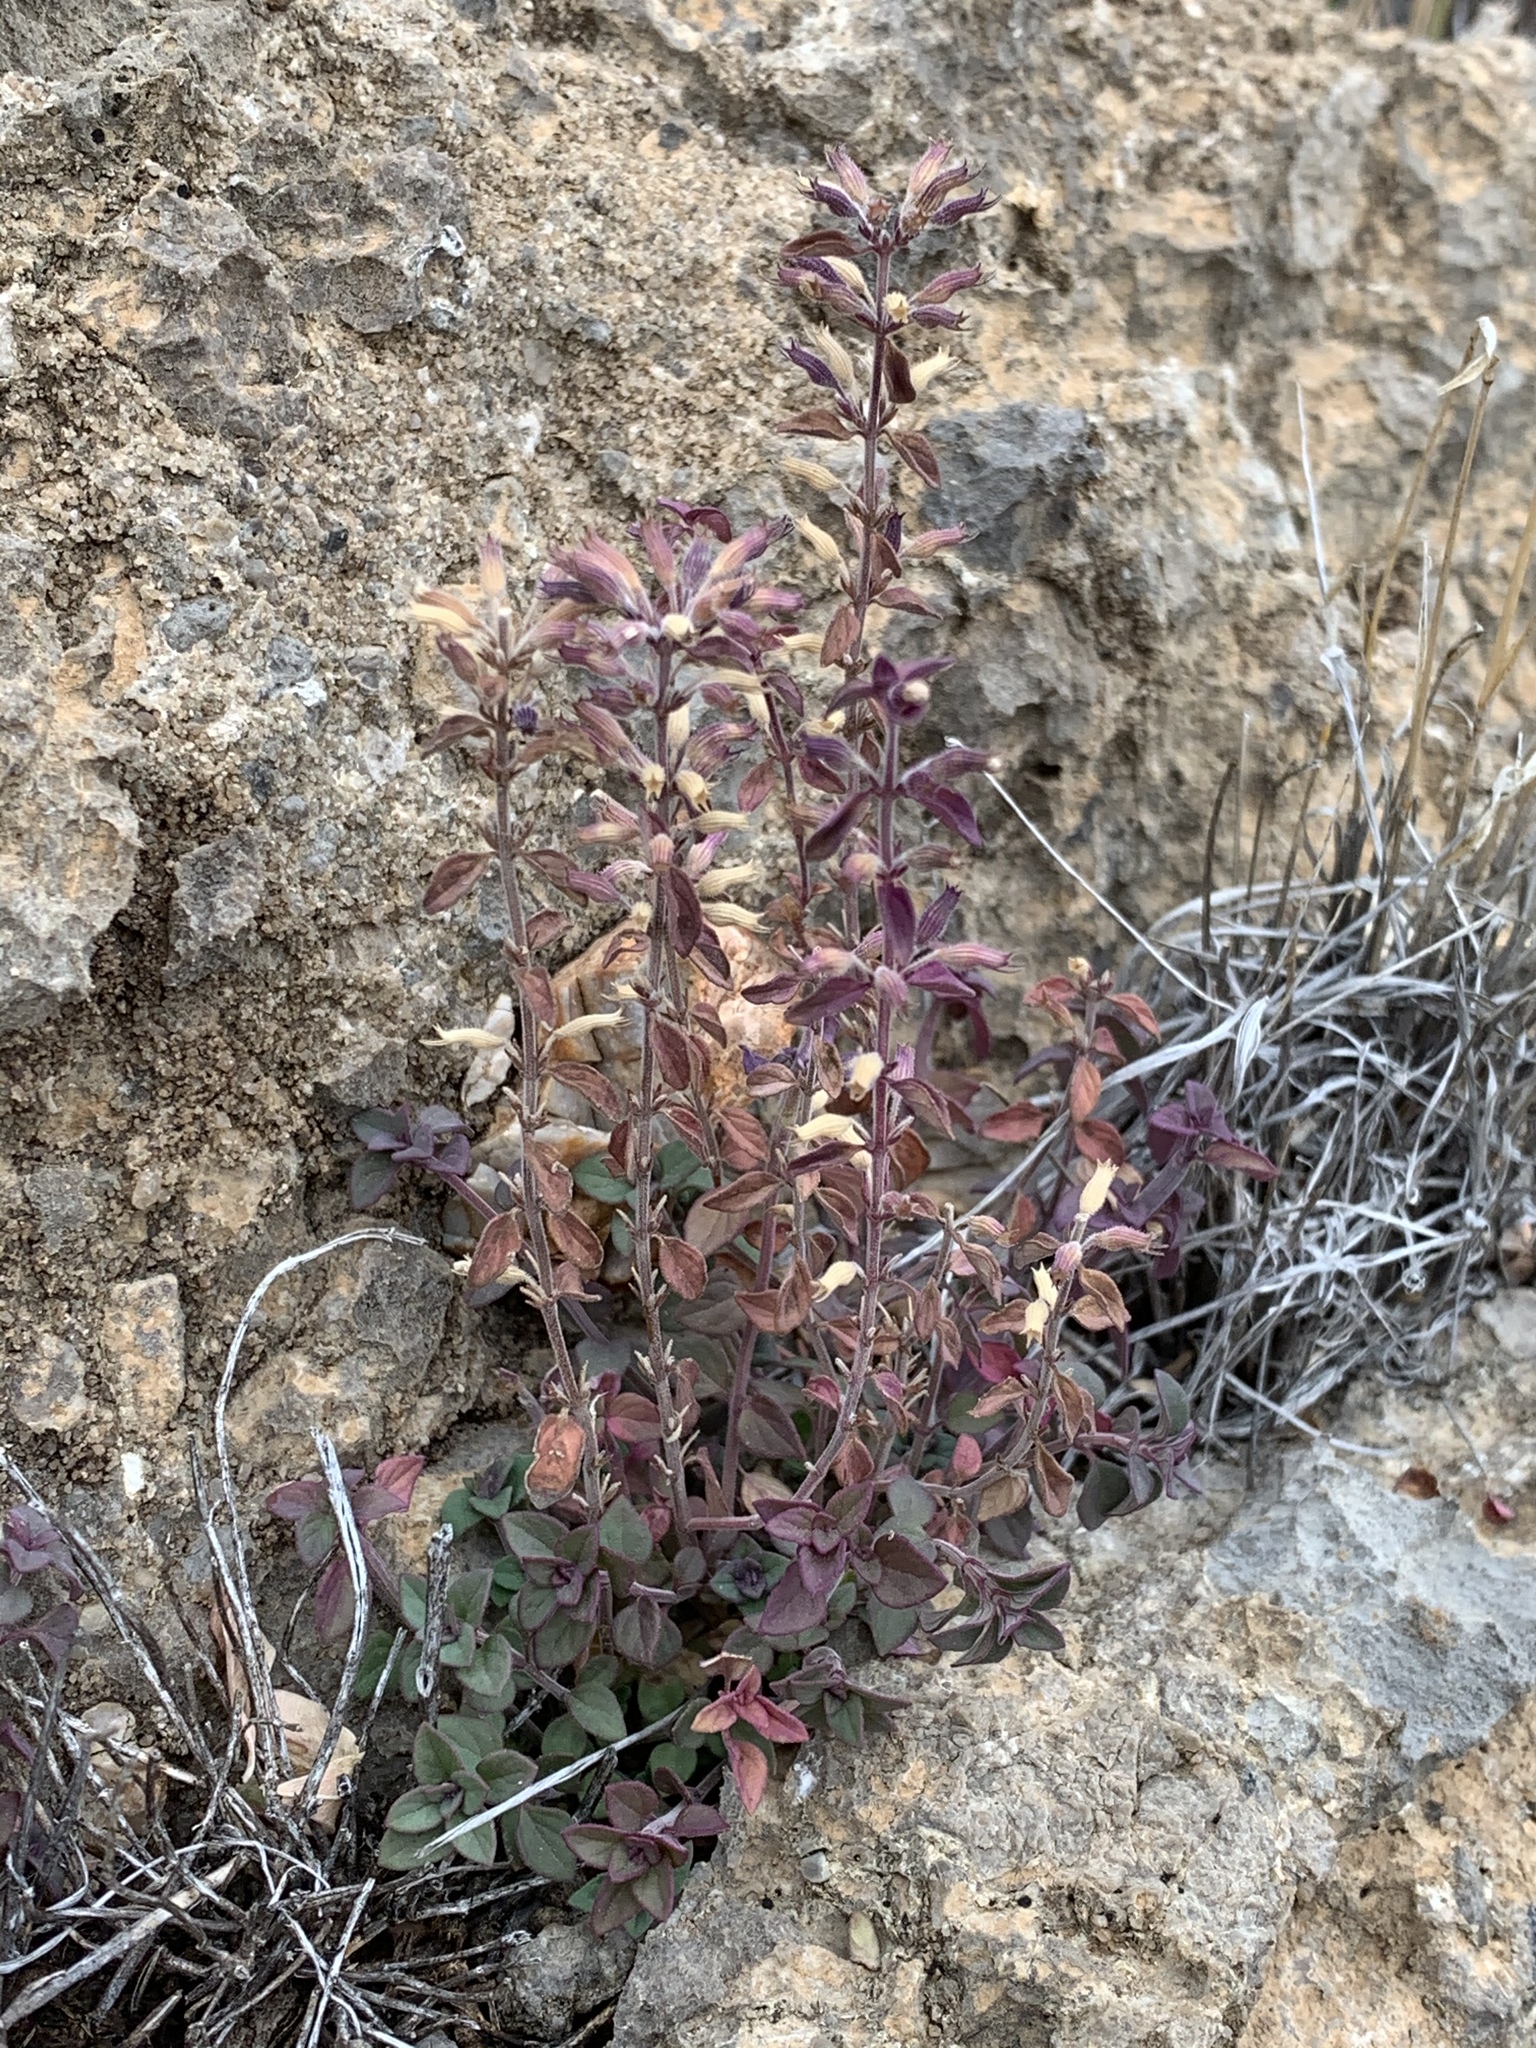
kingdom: Plantae
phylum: Tracheophyta
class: Magnoliopsida
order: Lamiales
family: Lamiaceae
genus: Hedeoma
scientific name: Hedeoma nana
